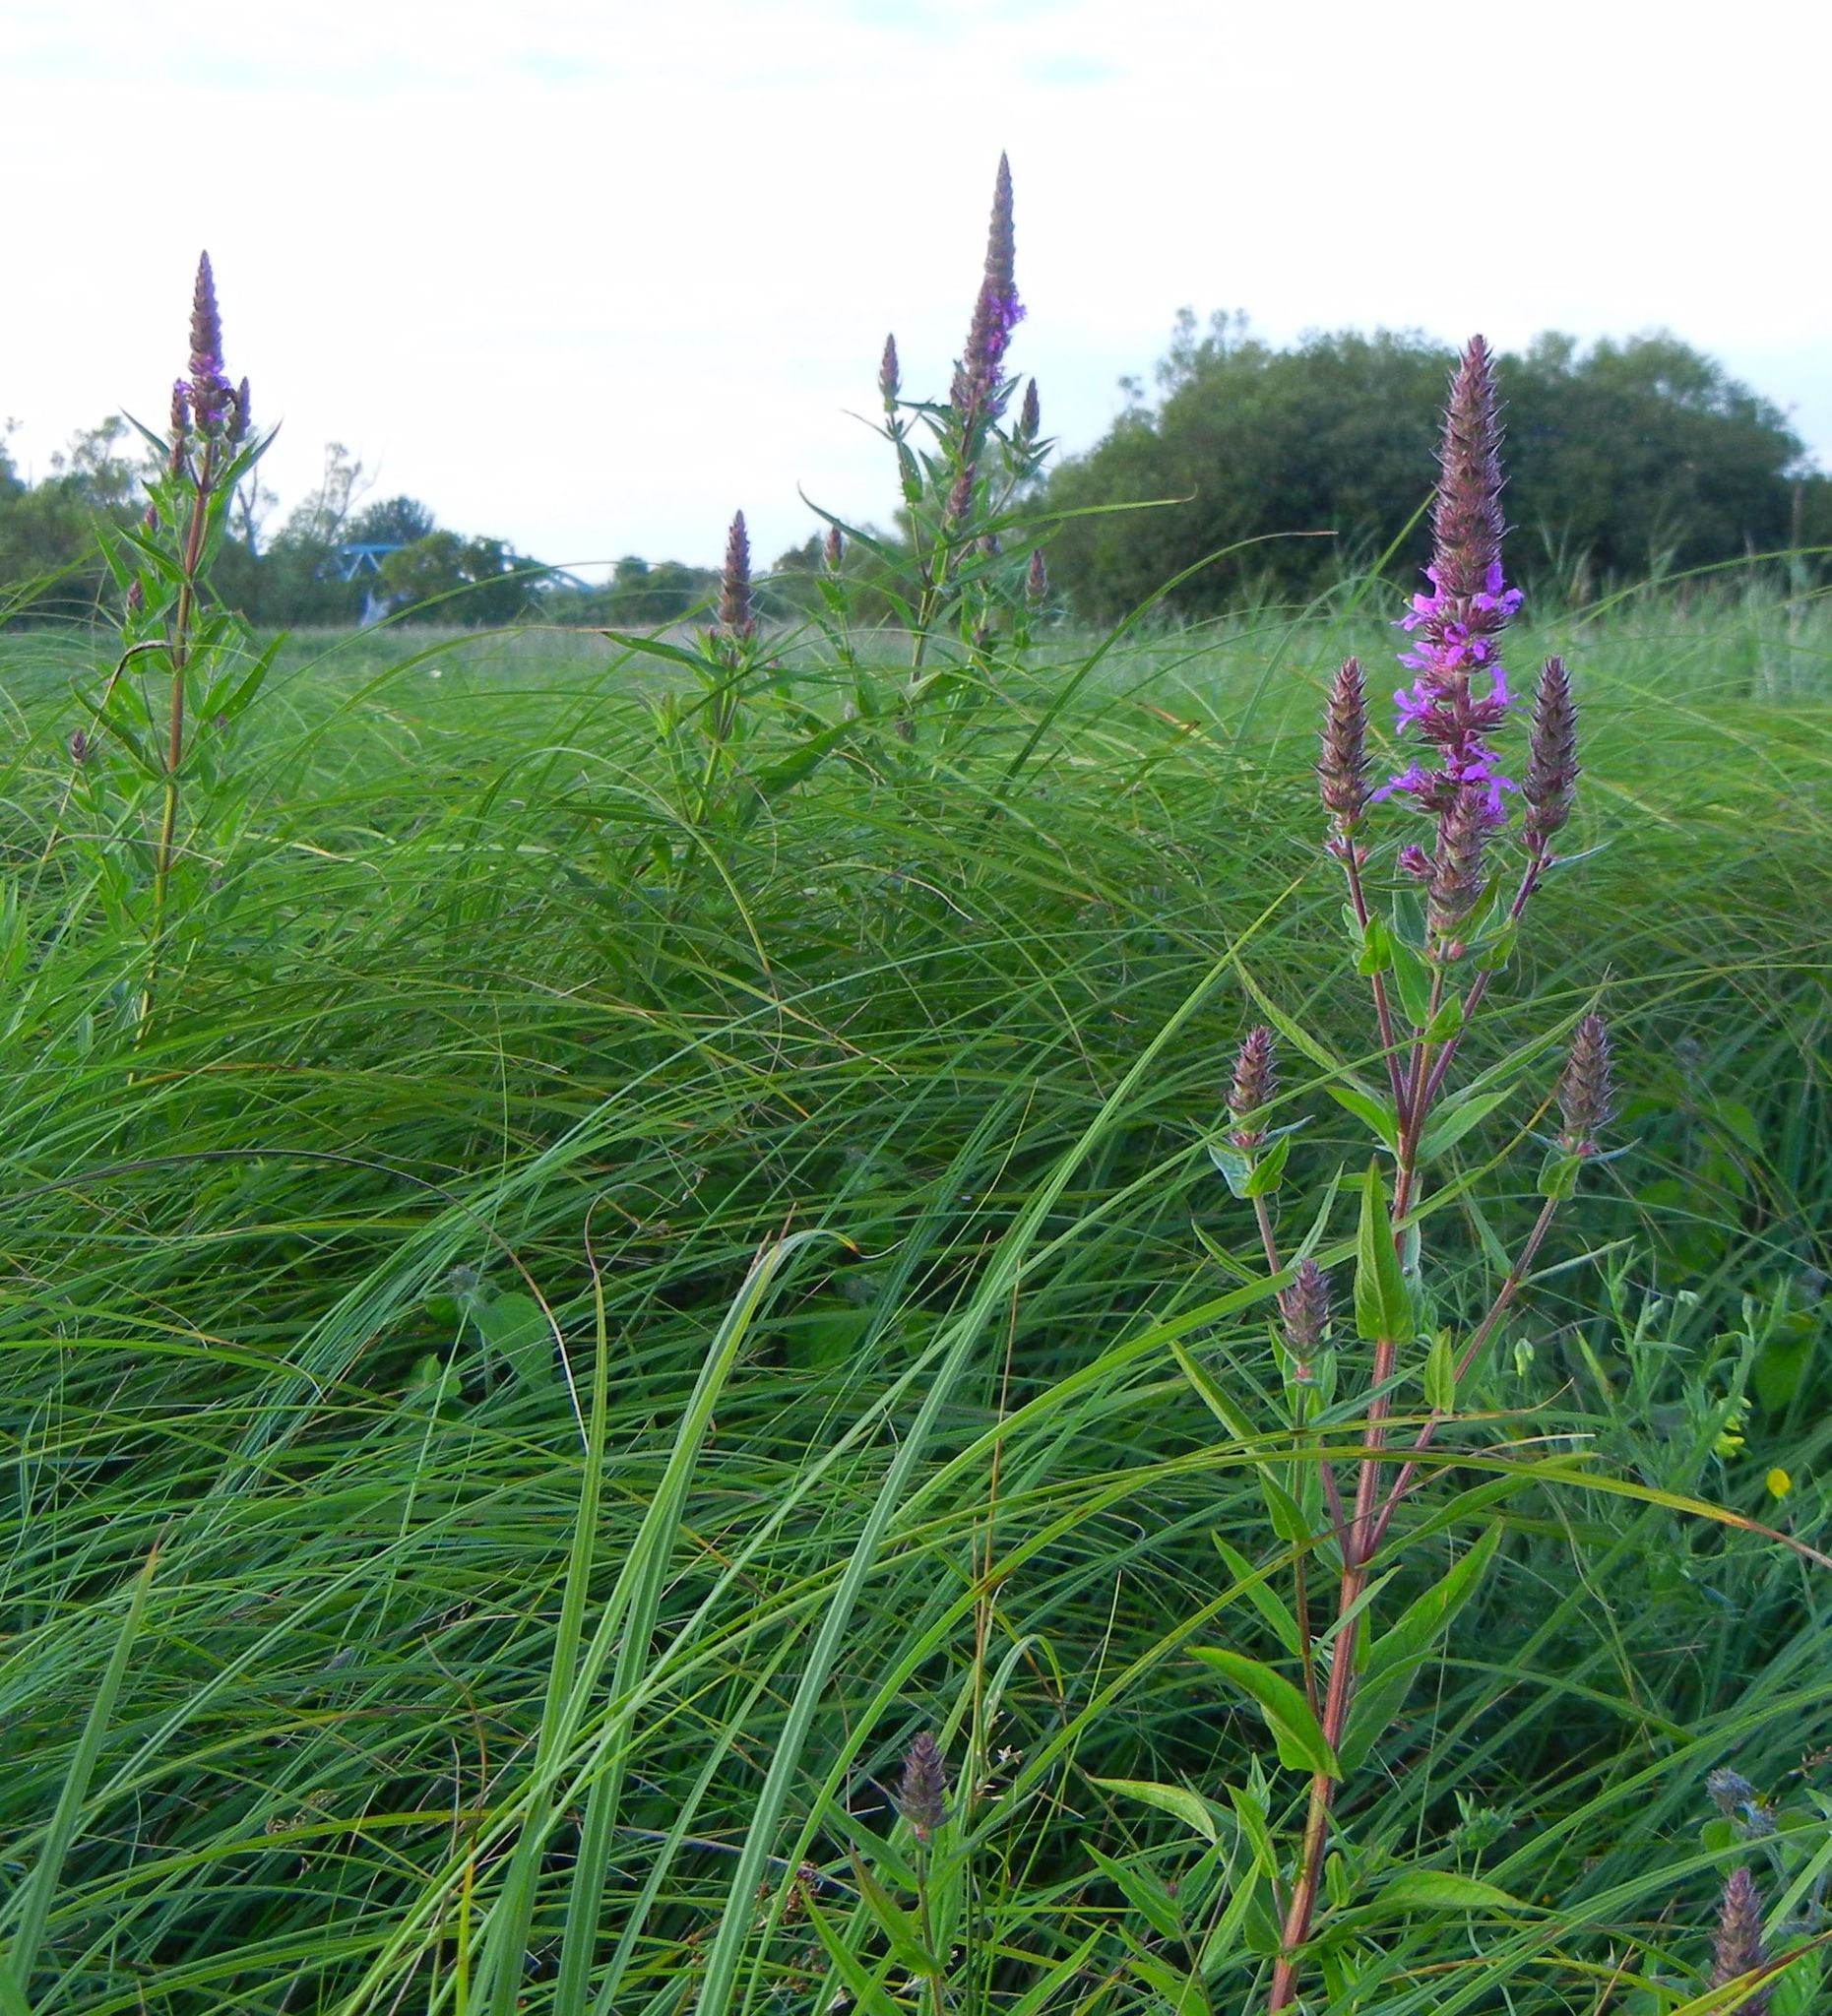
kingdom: Plantae
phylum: Tracheophyta
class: Magnoliopsida
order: Myrtales
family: Lythraceae
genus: Lythrum
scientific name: Lythrum salicaria
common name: Purple loosestrife
